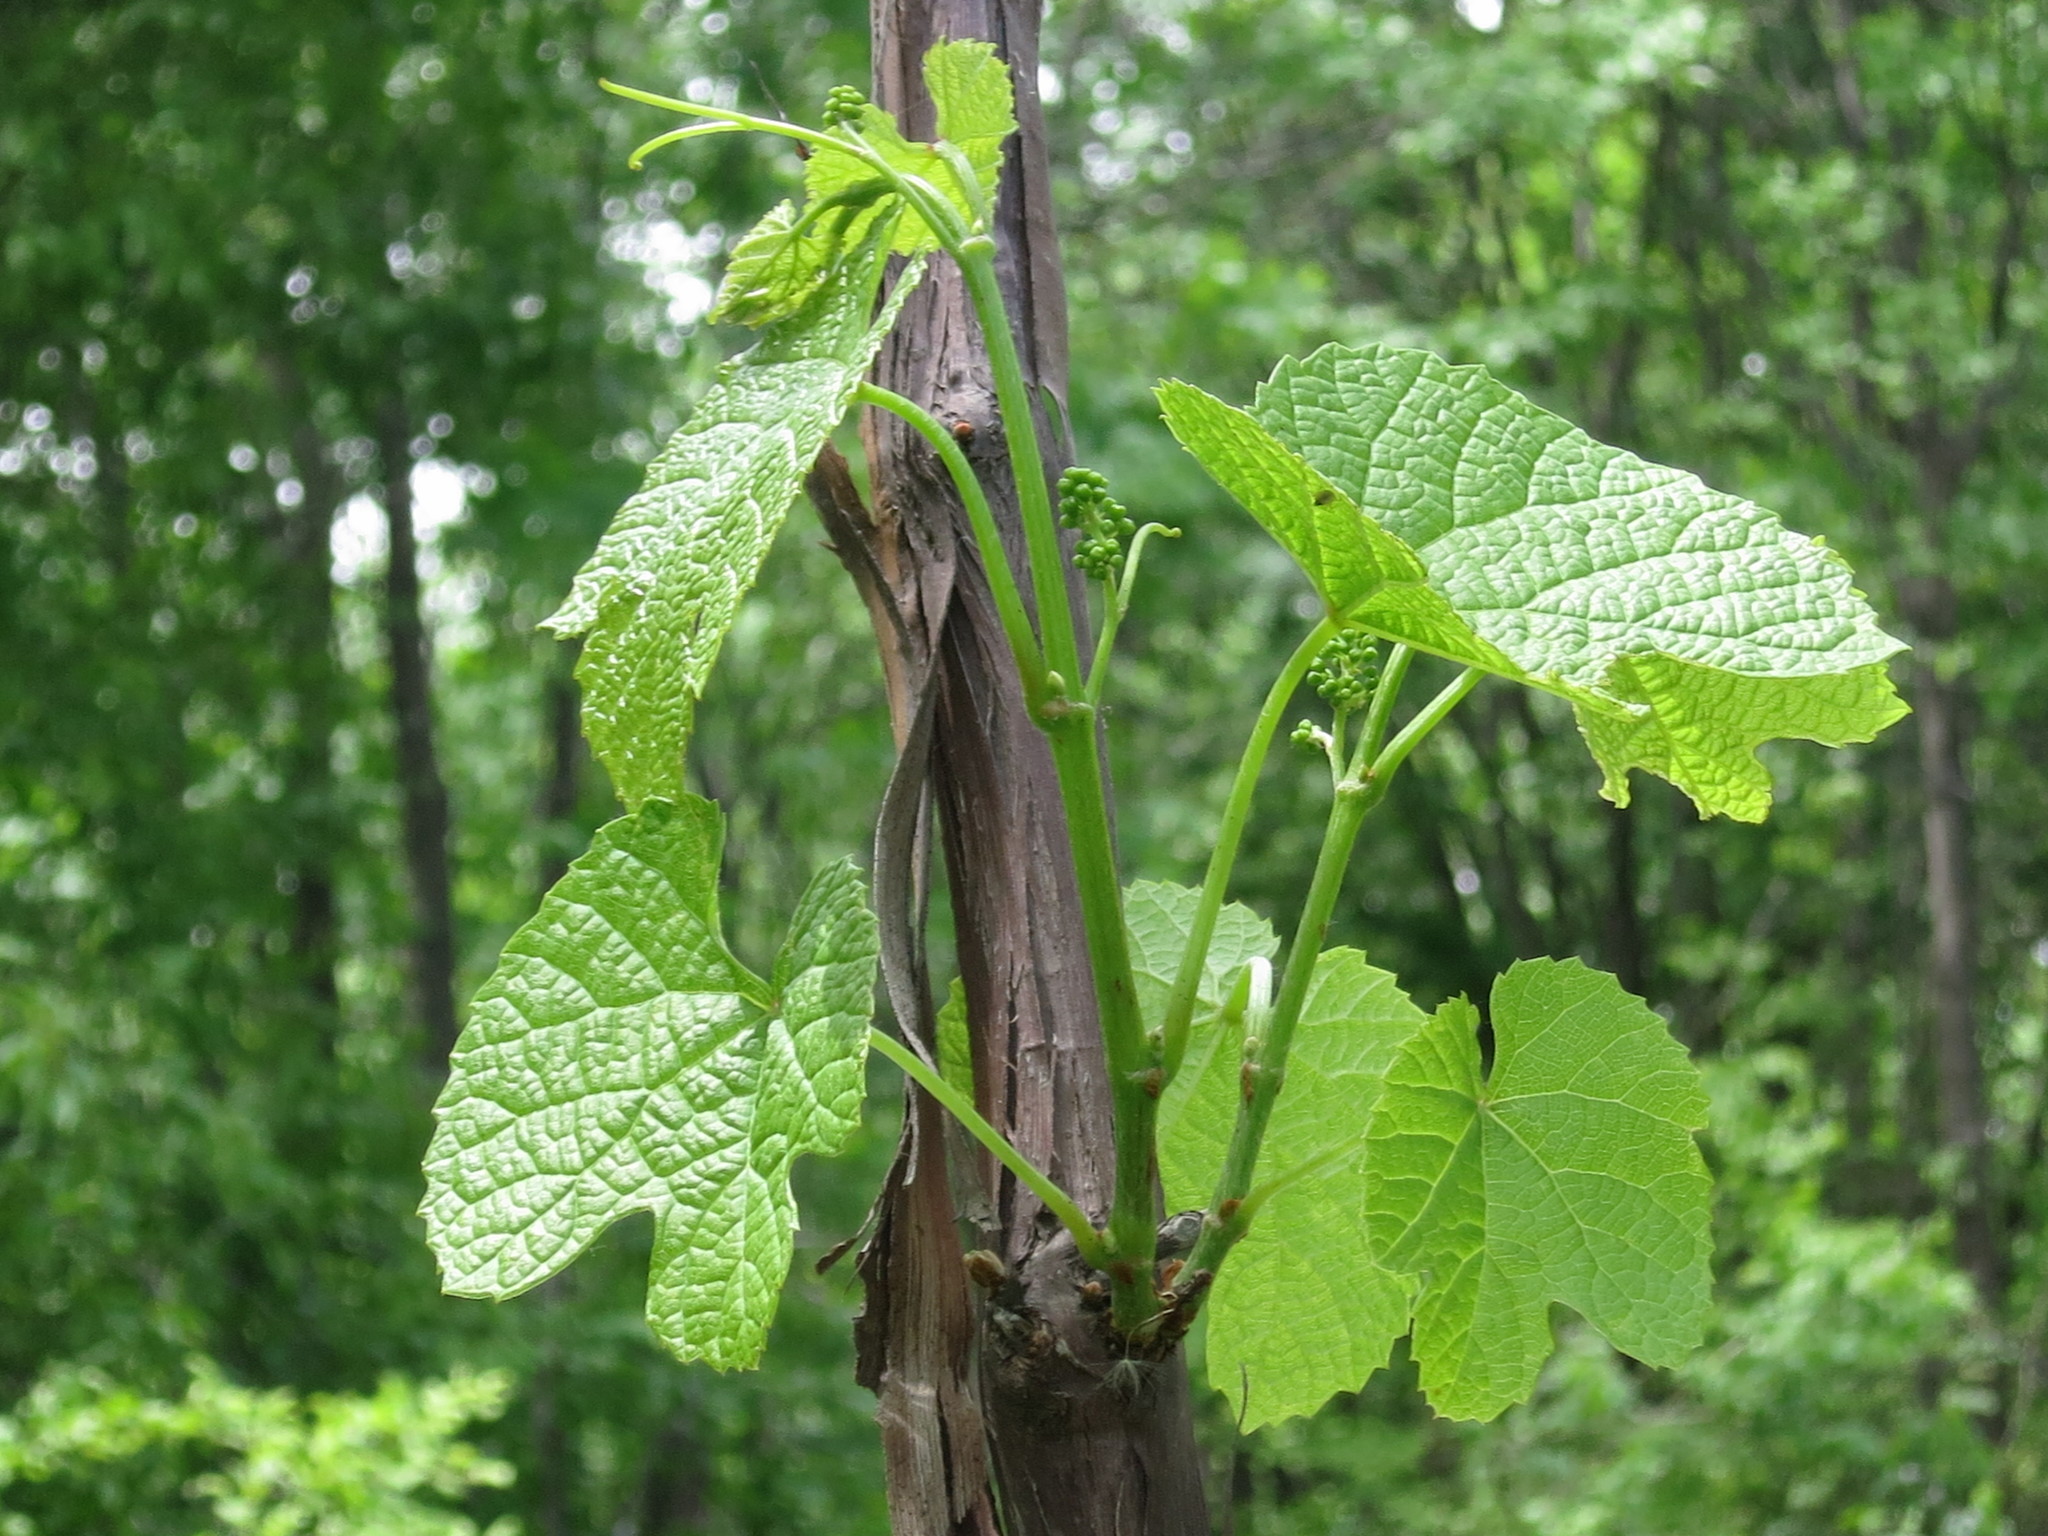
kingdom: Plantae
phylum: Tracheophyta
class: Magnoliopsida
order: Vitales
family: Vitaceae
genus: Vitis
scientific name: Vitis amurensis
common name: Amur grape
